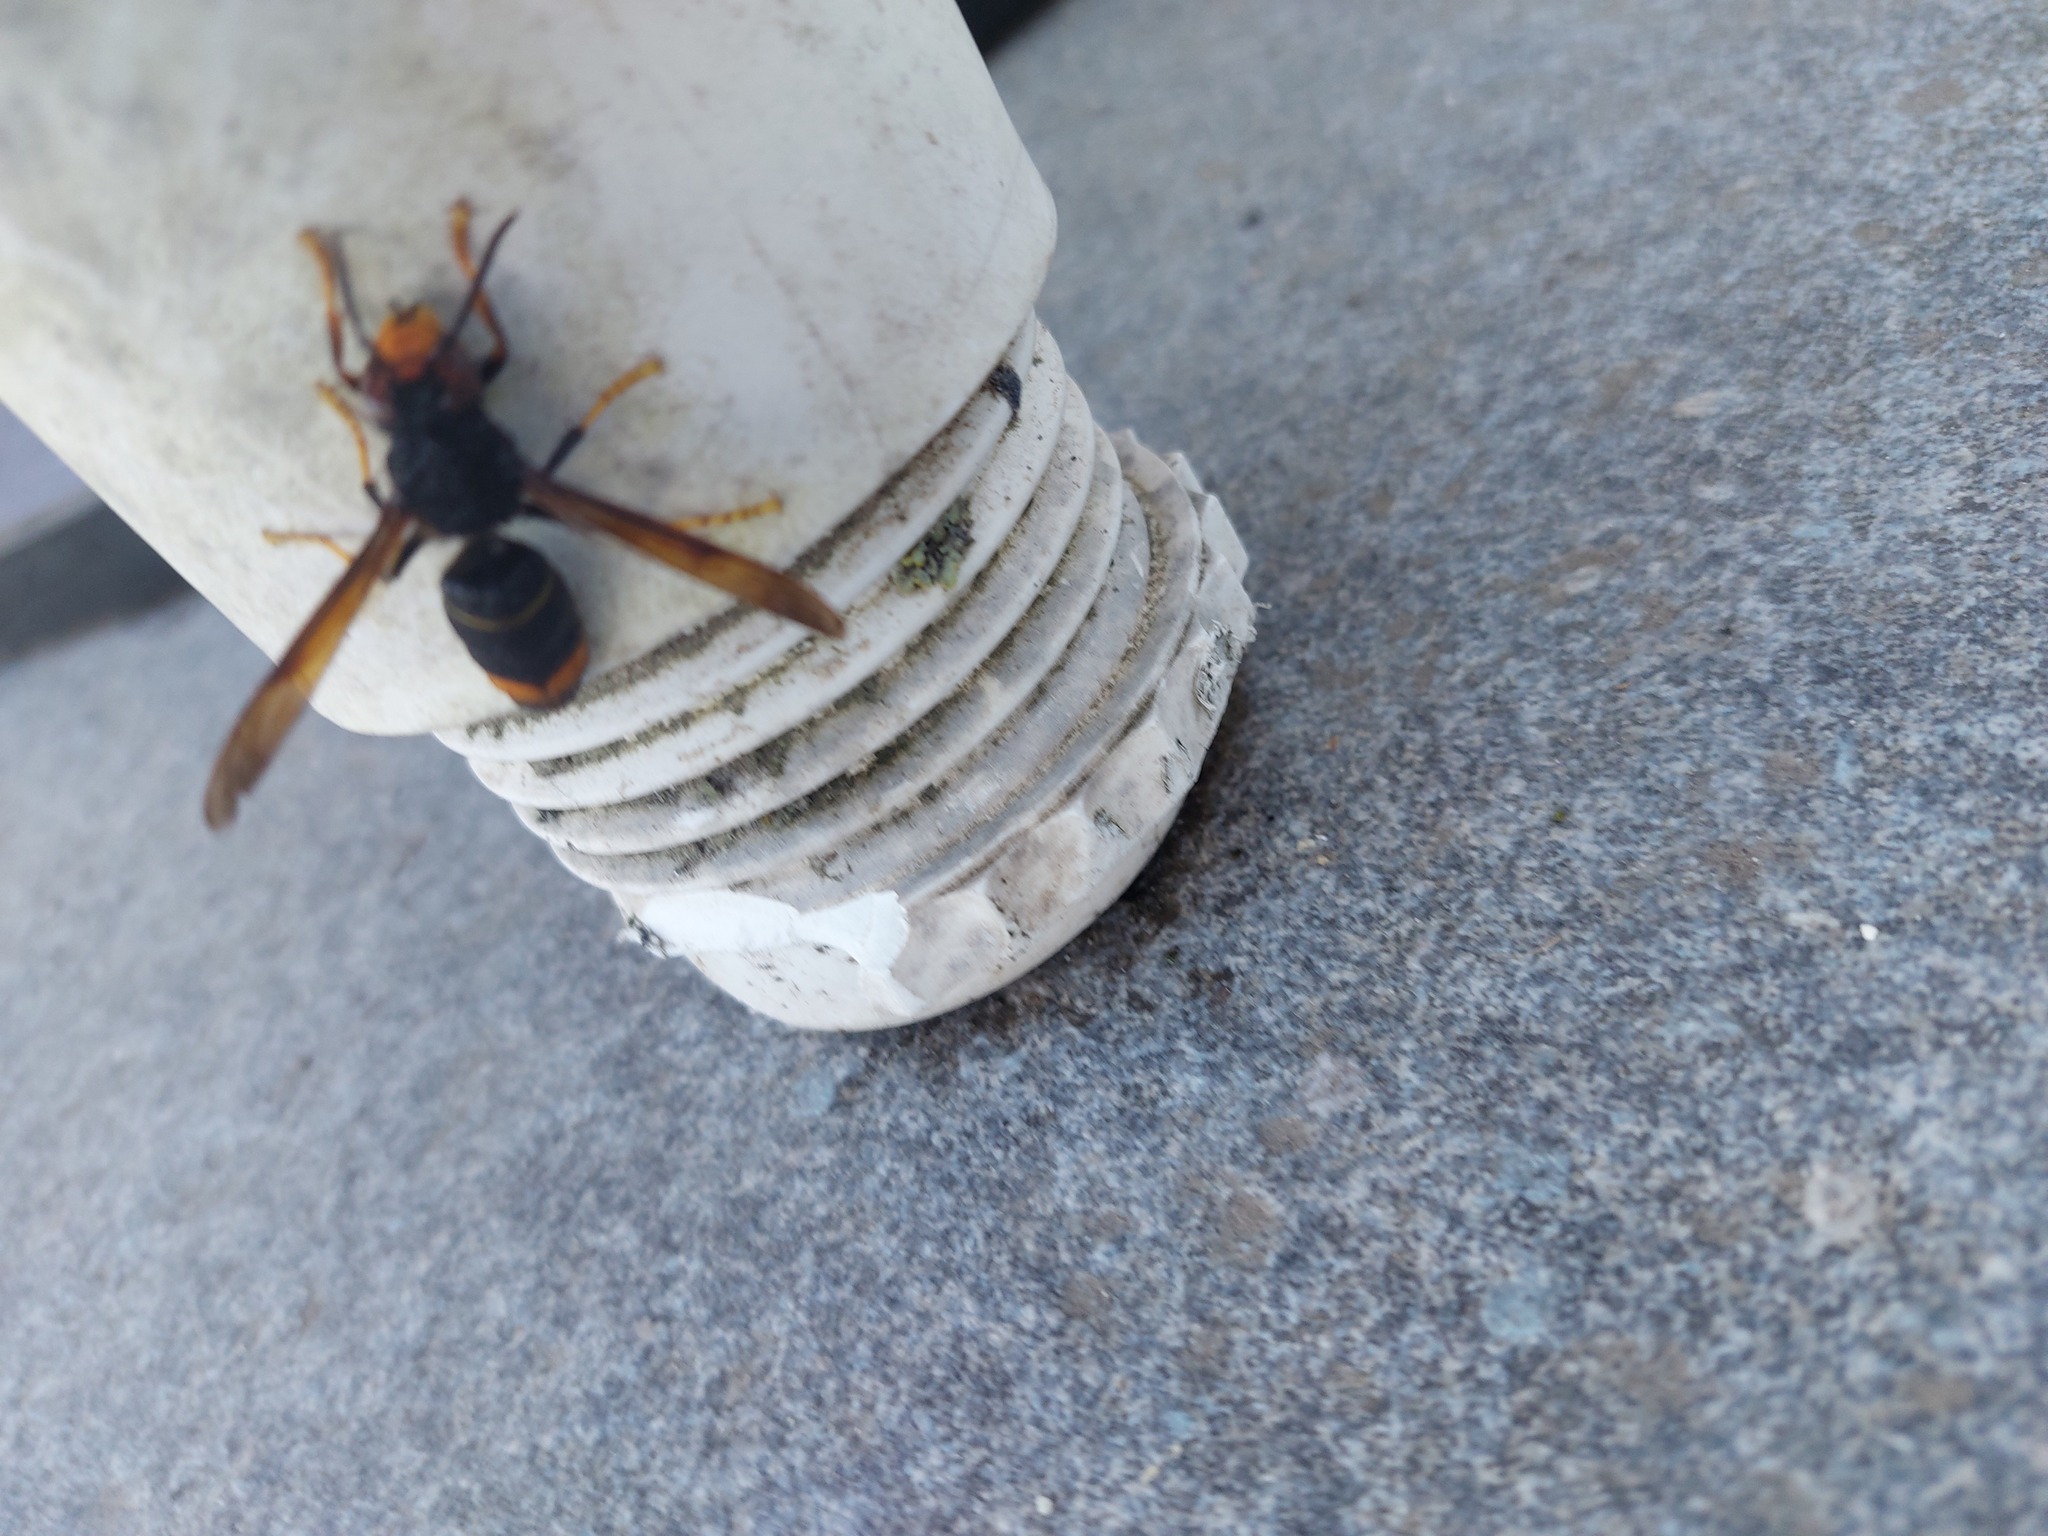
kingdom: Animalia
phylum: Arthropoda
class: Insecta
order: Hymenoptera
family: Vespidae
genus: Vespa
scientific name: Vespa velutina
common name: Asian hornet
